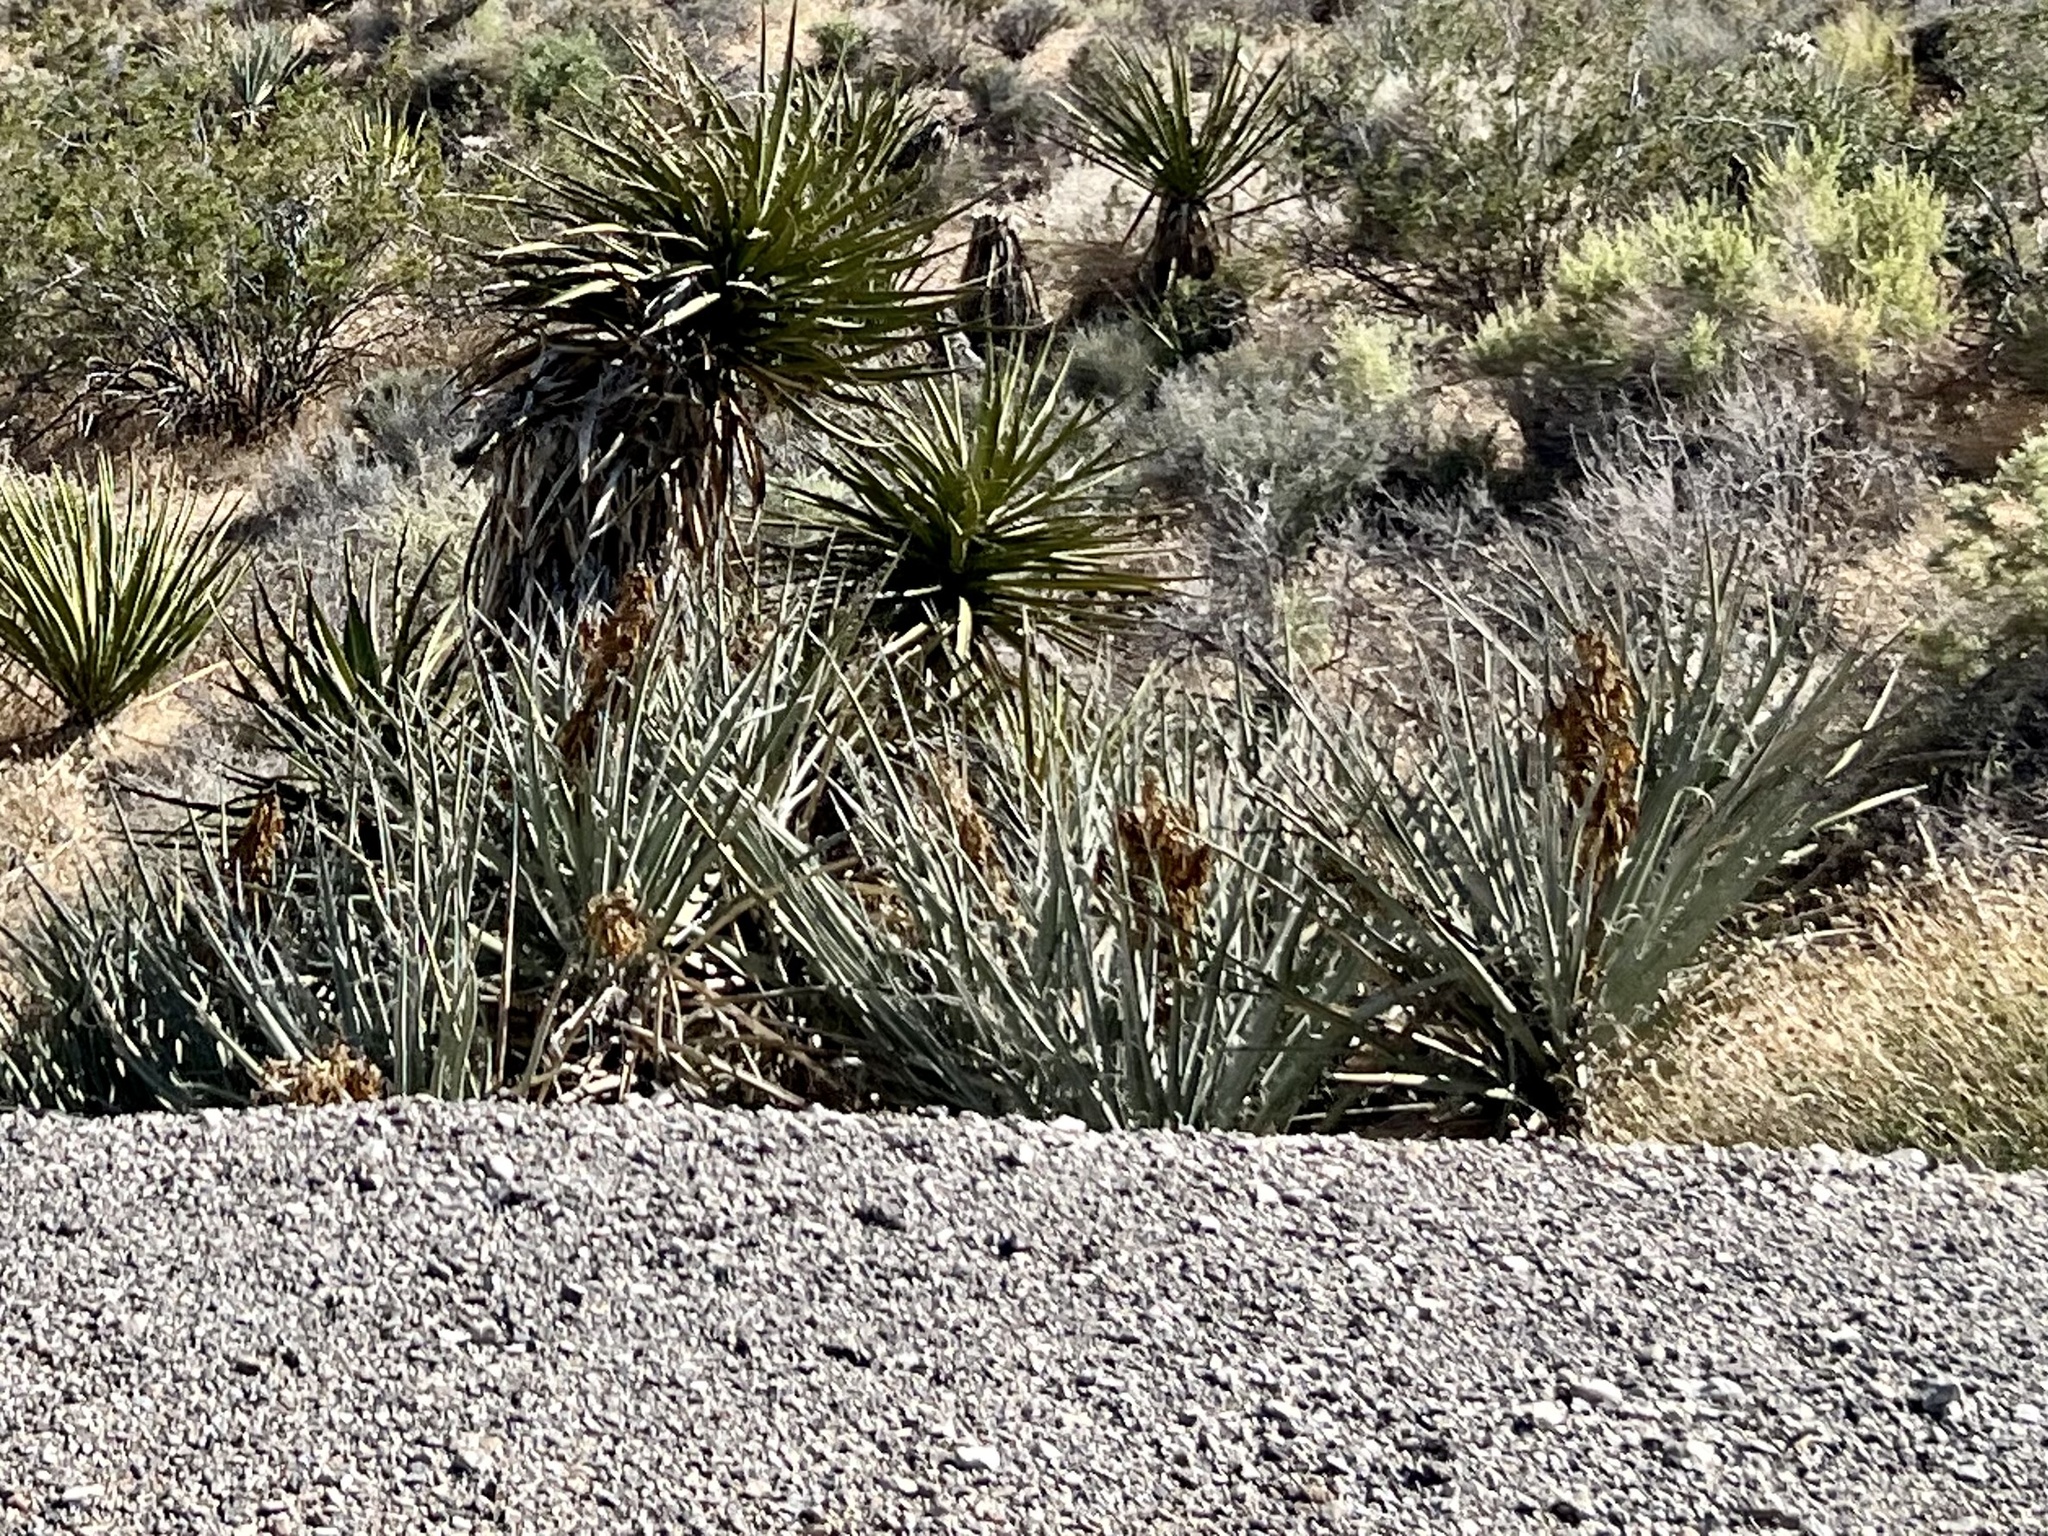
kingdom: Plantae
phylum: Tracheophyta
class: Liliopsida
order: Asparagales
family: Asparagaceae
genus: Yucca
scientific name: Yucca baccata
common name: Banana yucca
